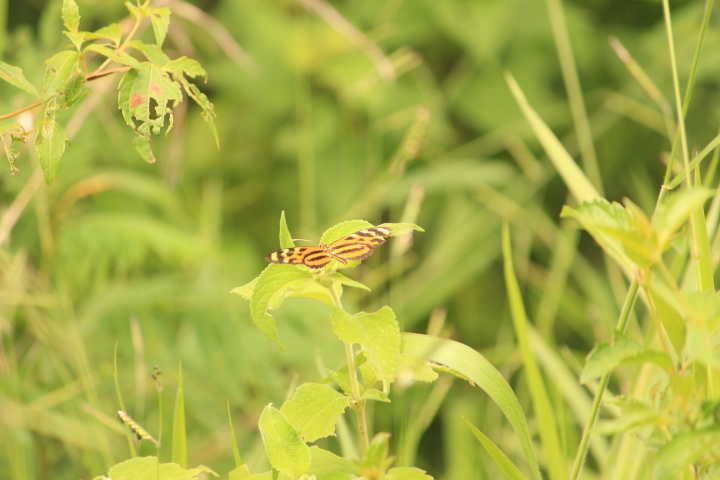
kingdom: Animalia
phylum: Arthropoda
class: Insecta
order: Lepidoptera
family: Nymphalidae
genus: Mechanitis
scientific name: Mechanitis lysimnia
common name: Lysimnia tigerwing
